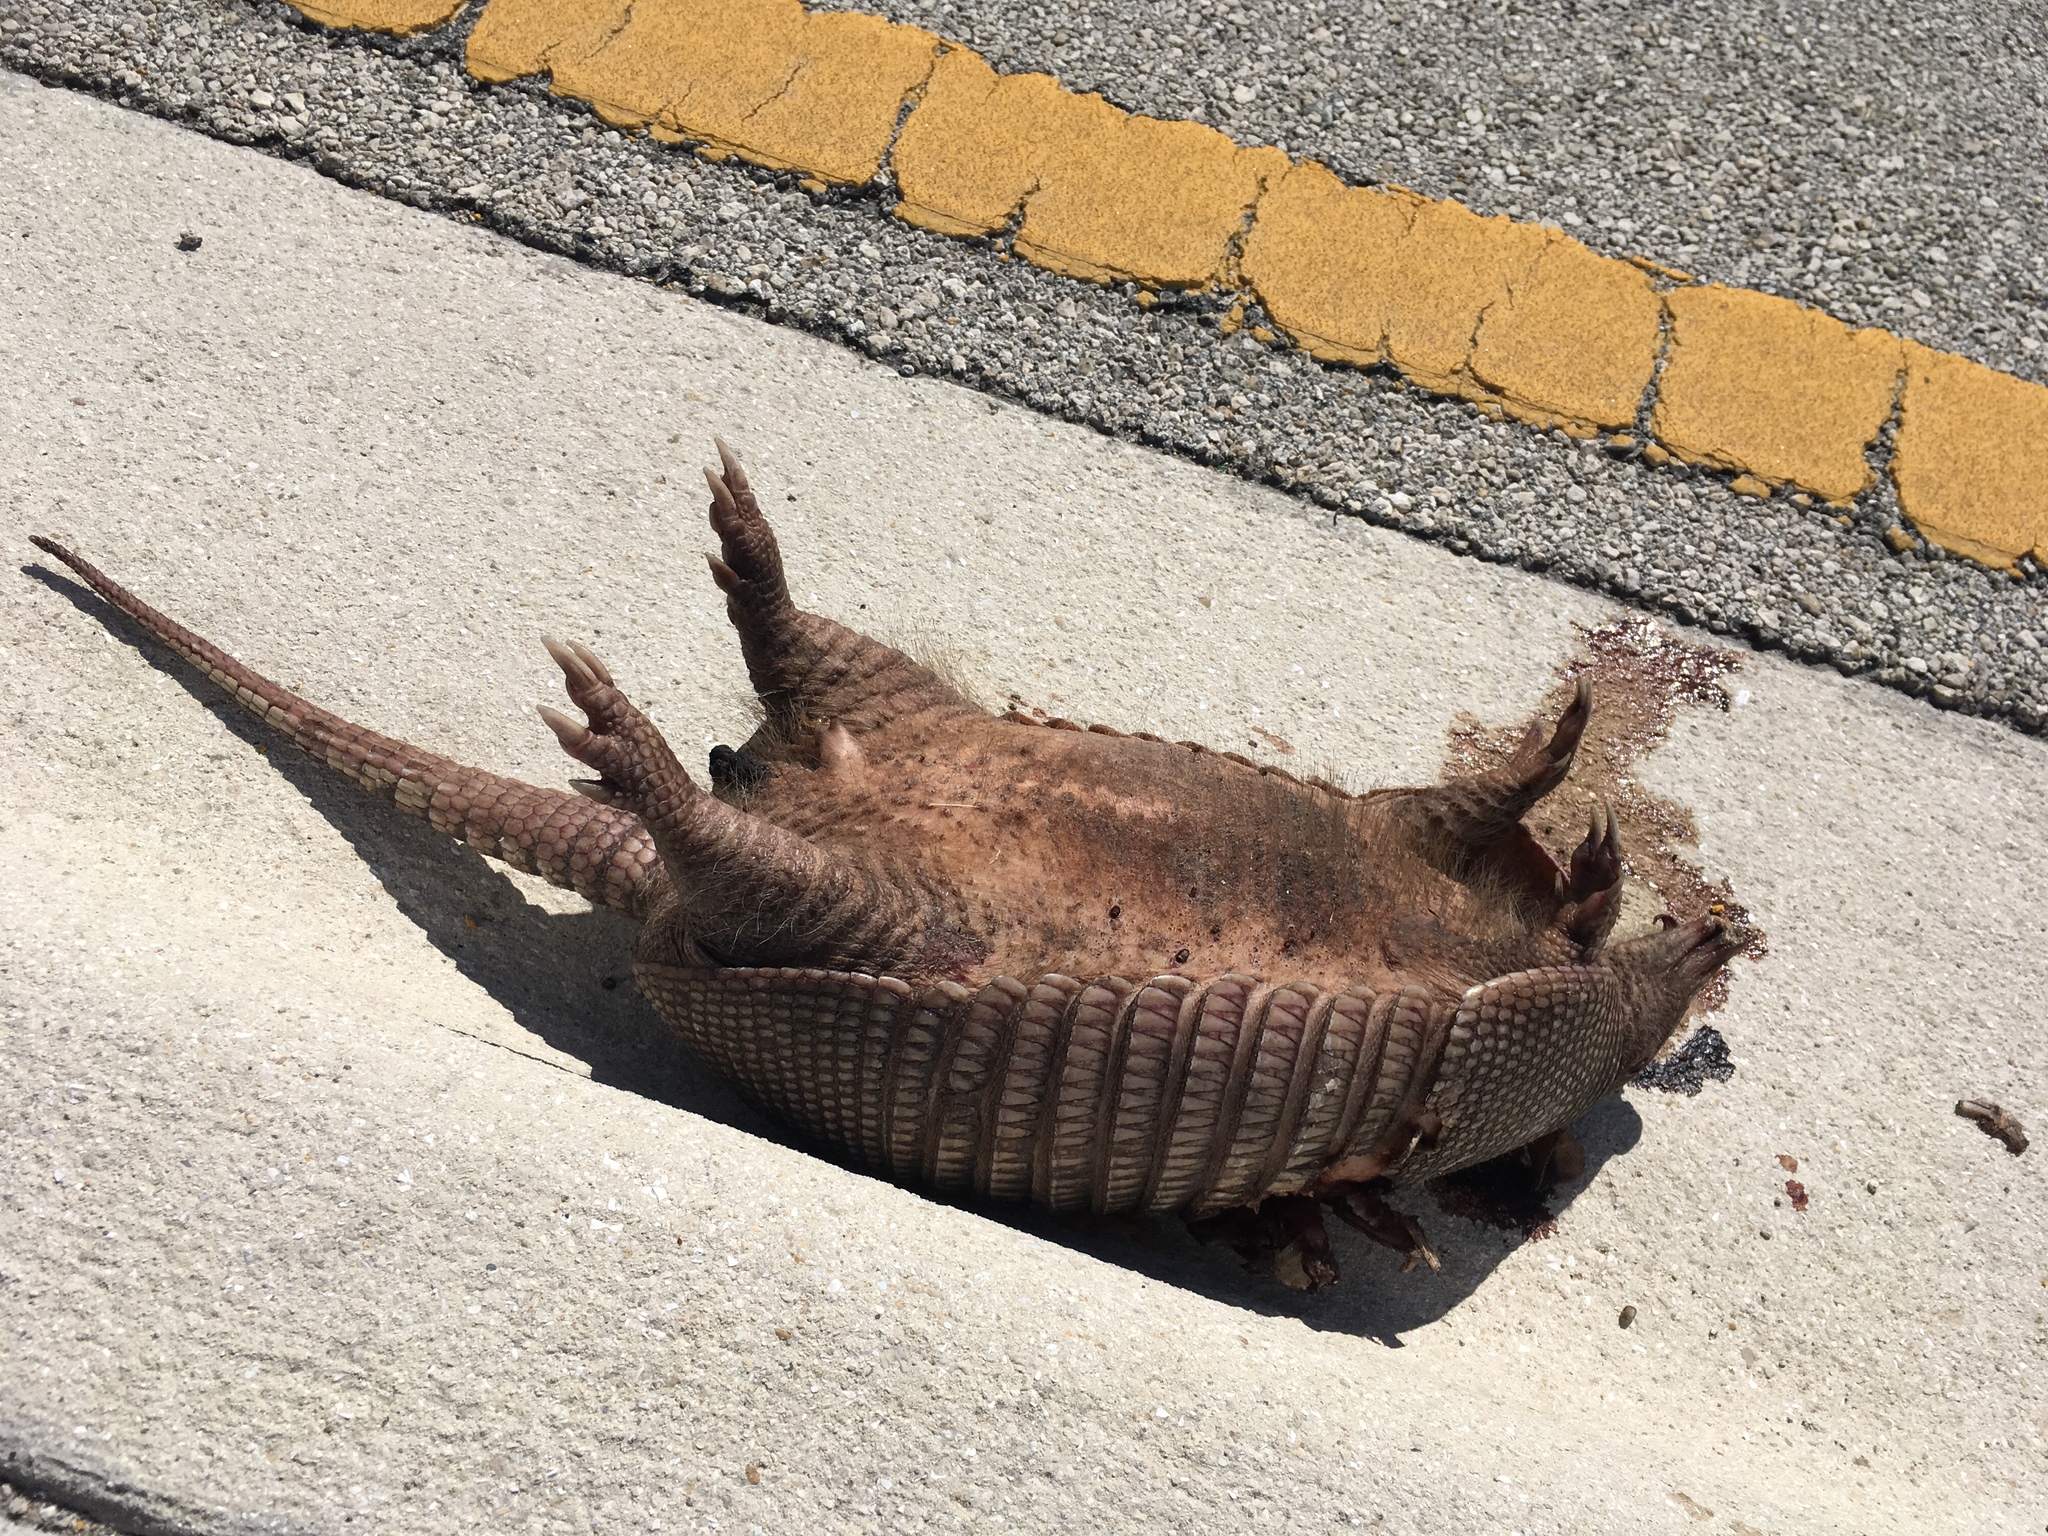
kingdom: Animalia
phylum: Chordata
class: Mammalia
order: Cingulata
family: Dasypodidae
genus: Dasypus
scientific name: Dasypus novemcinctus
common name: Nine-banded armadillo
